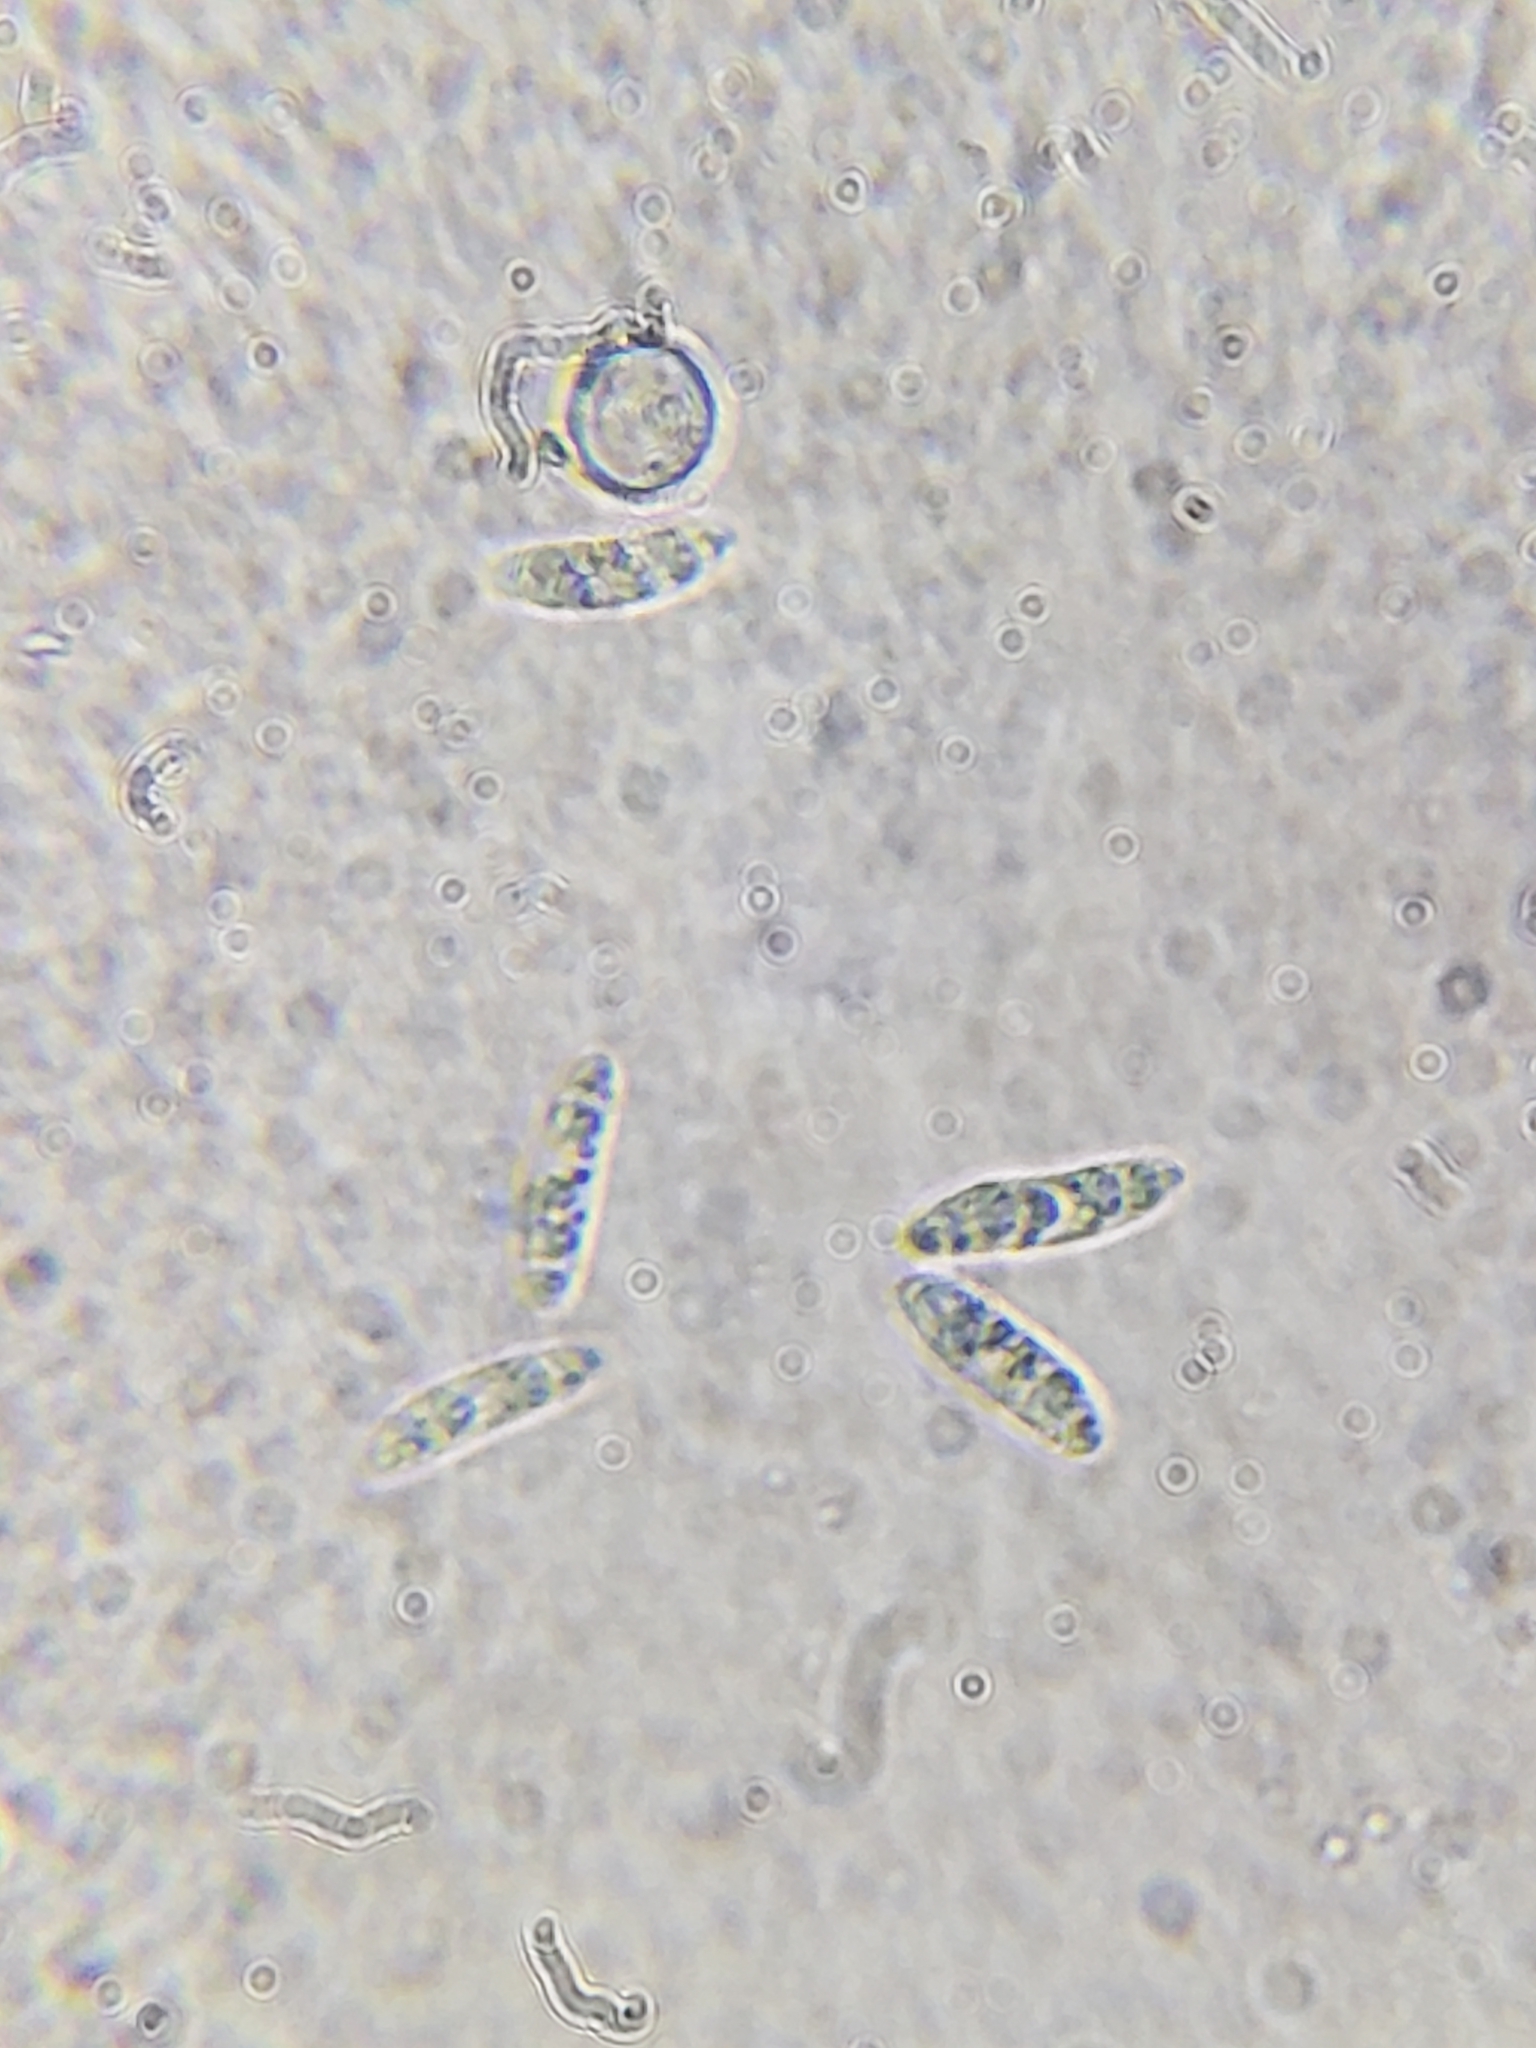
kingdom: Fungi
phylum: Ascomycota
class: Leotiomycetes
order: Helotiales
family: Cenangiaceae
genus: Chlorencoelia
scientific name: Chlorencoelia versiformis
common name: Flea's ear
